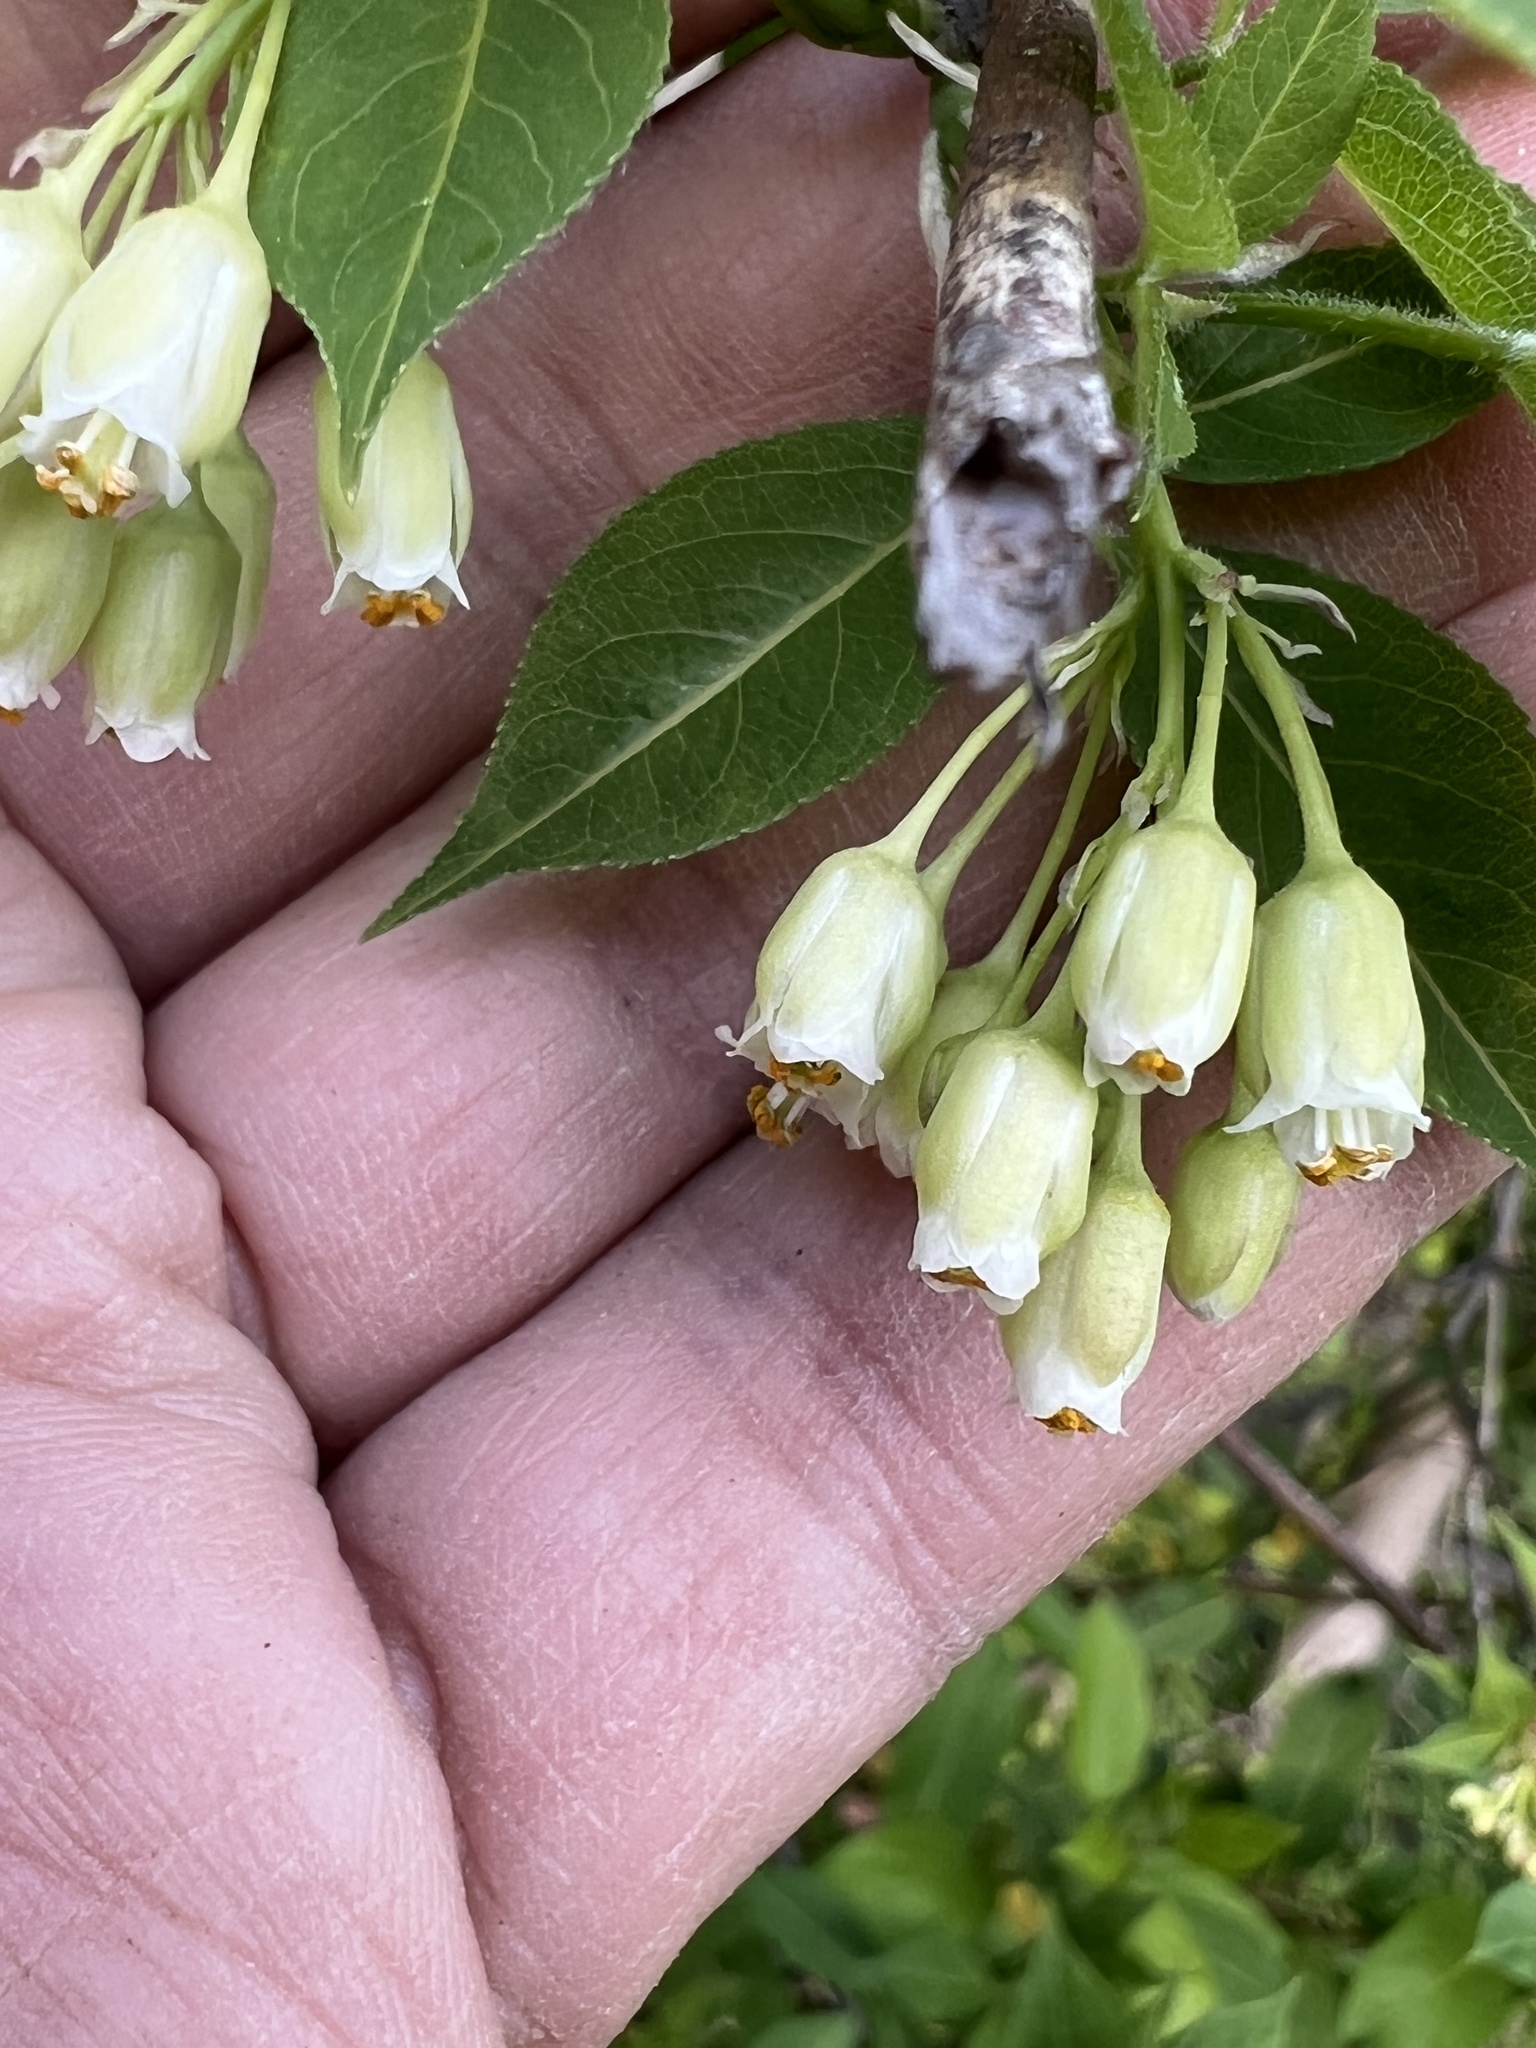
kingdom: Plantae
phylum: Tracheophyta
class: Magnoliopsida
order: Crossosomatales
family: Staphyleaceae
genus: Staphylea
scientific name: Staphylea trifolia
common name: American bladdernut
